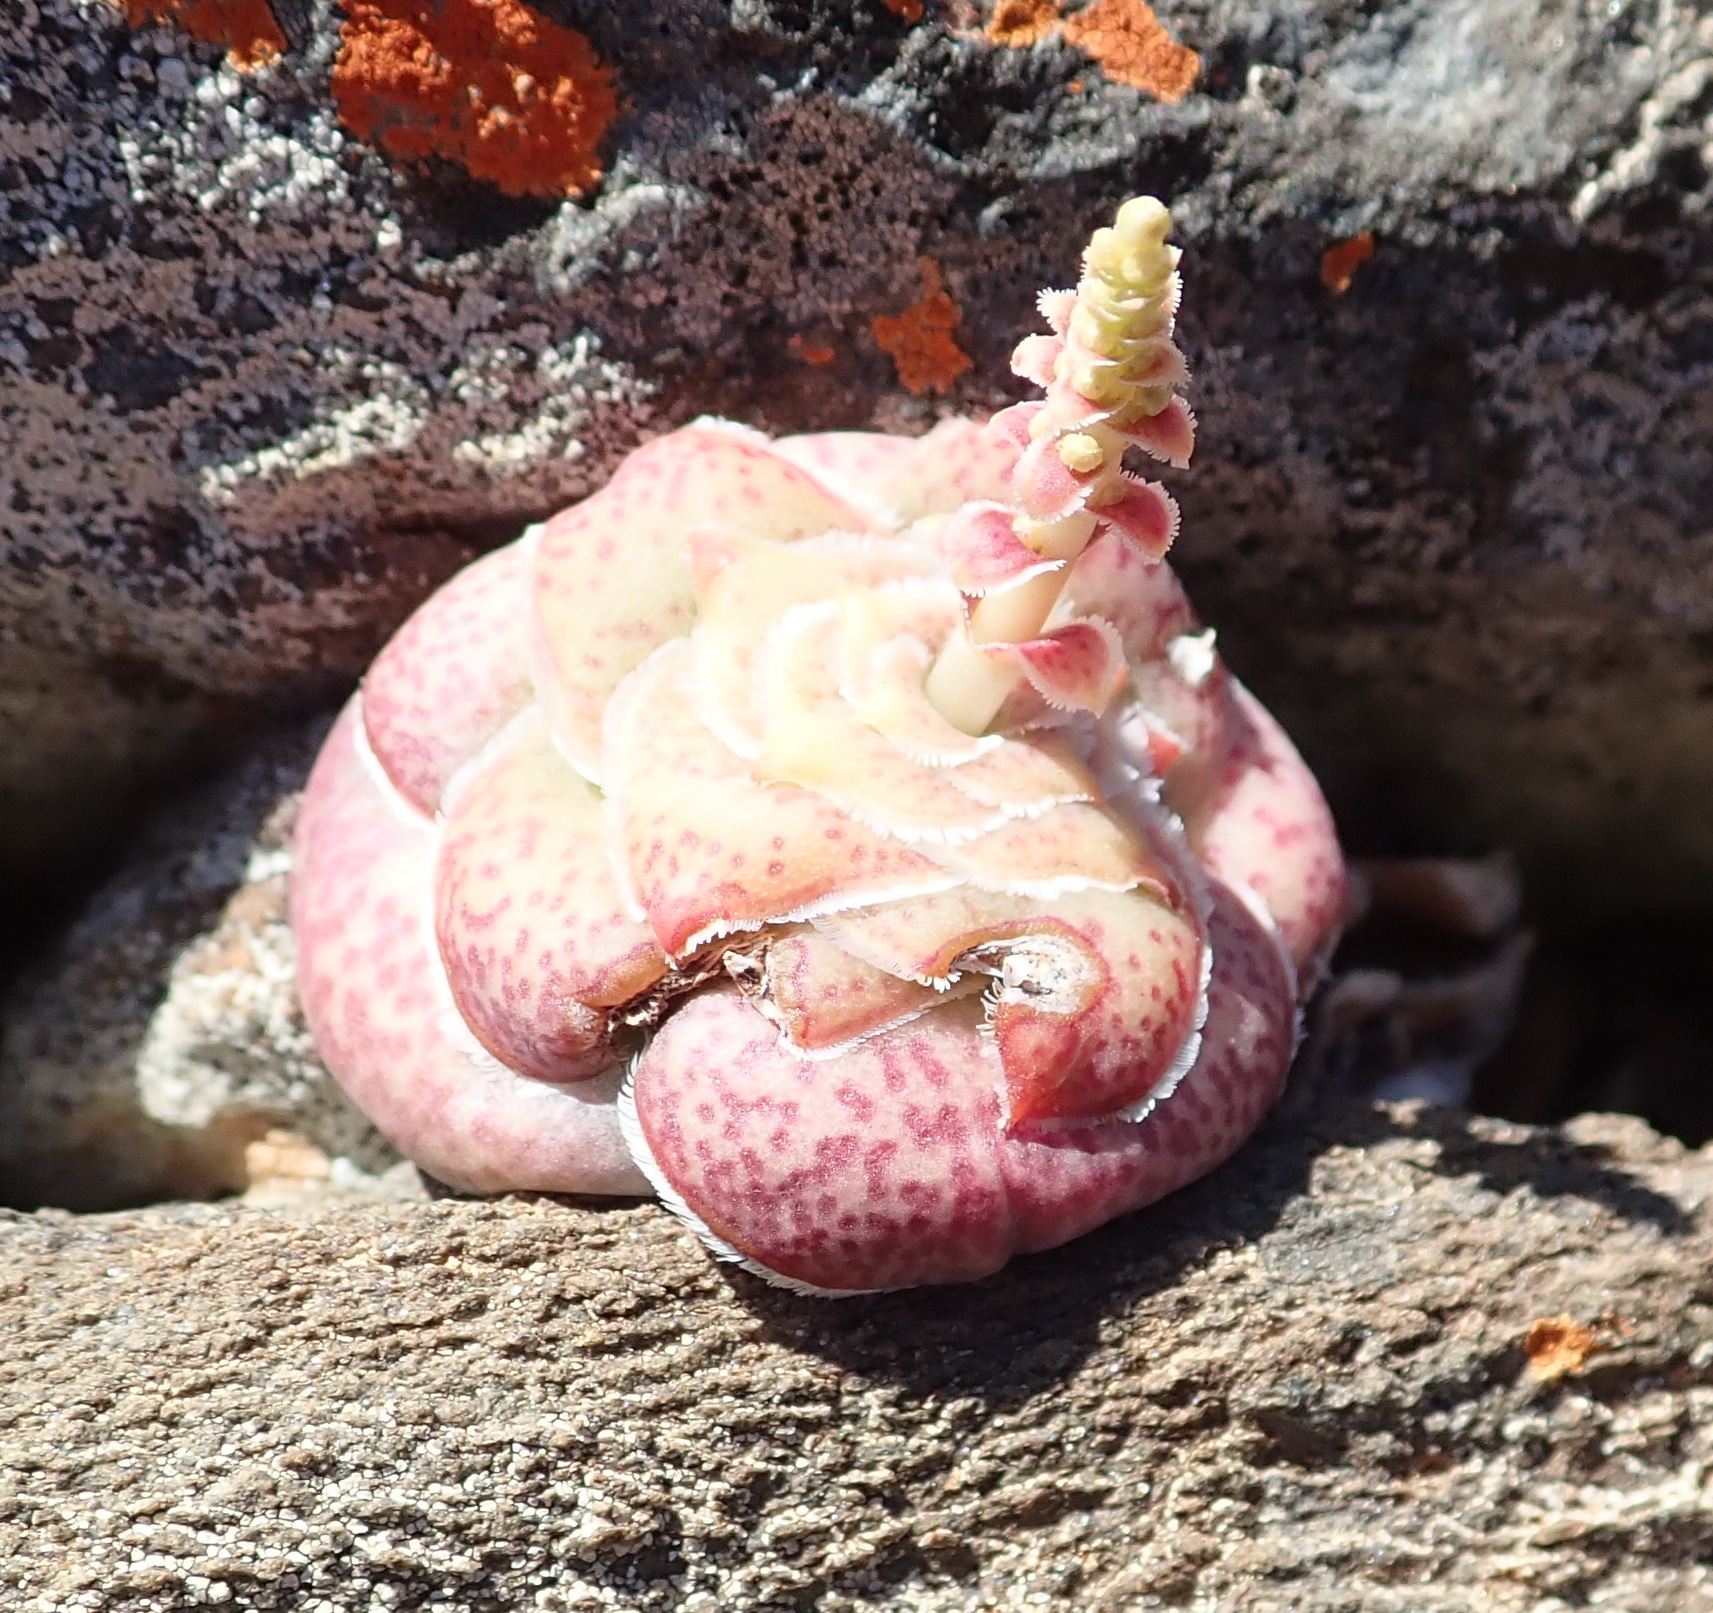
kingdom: Plantae
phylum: Tracheophyta
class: Magnoliopsida
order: Saxifragales
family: Crassulaceae
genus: Crassula
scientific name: Crassula hemisphaerica
